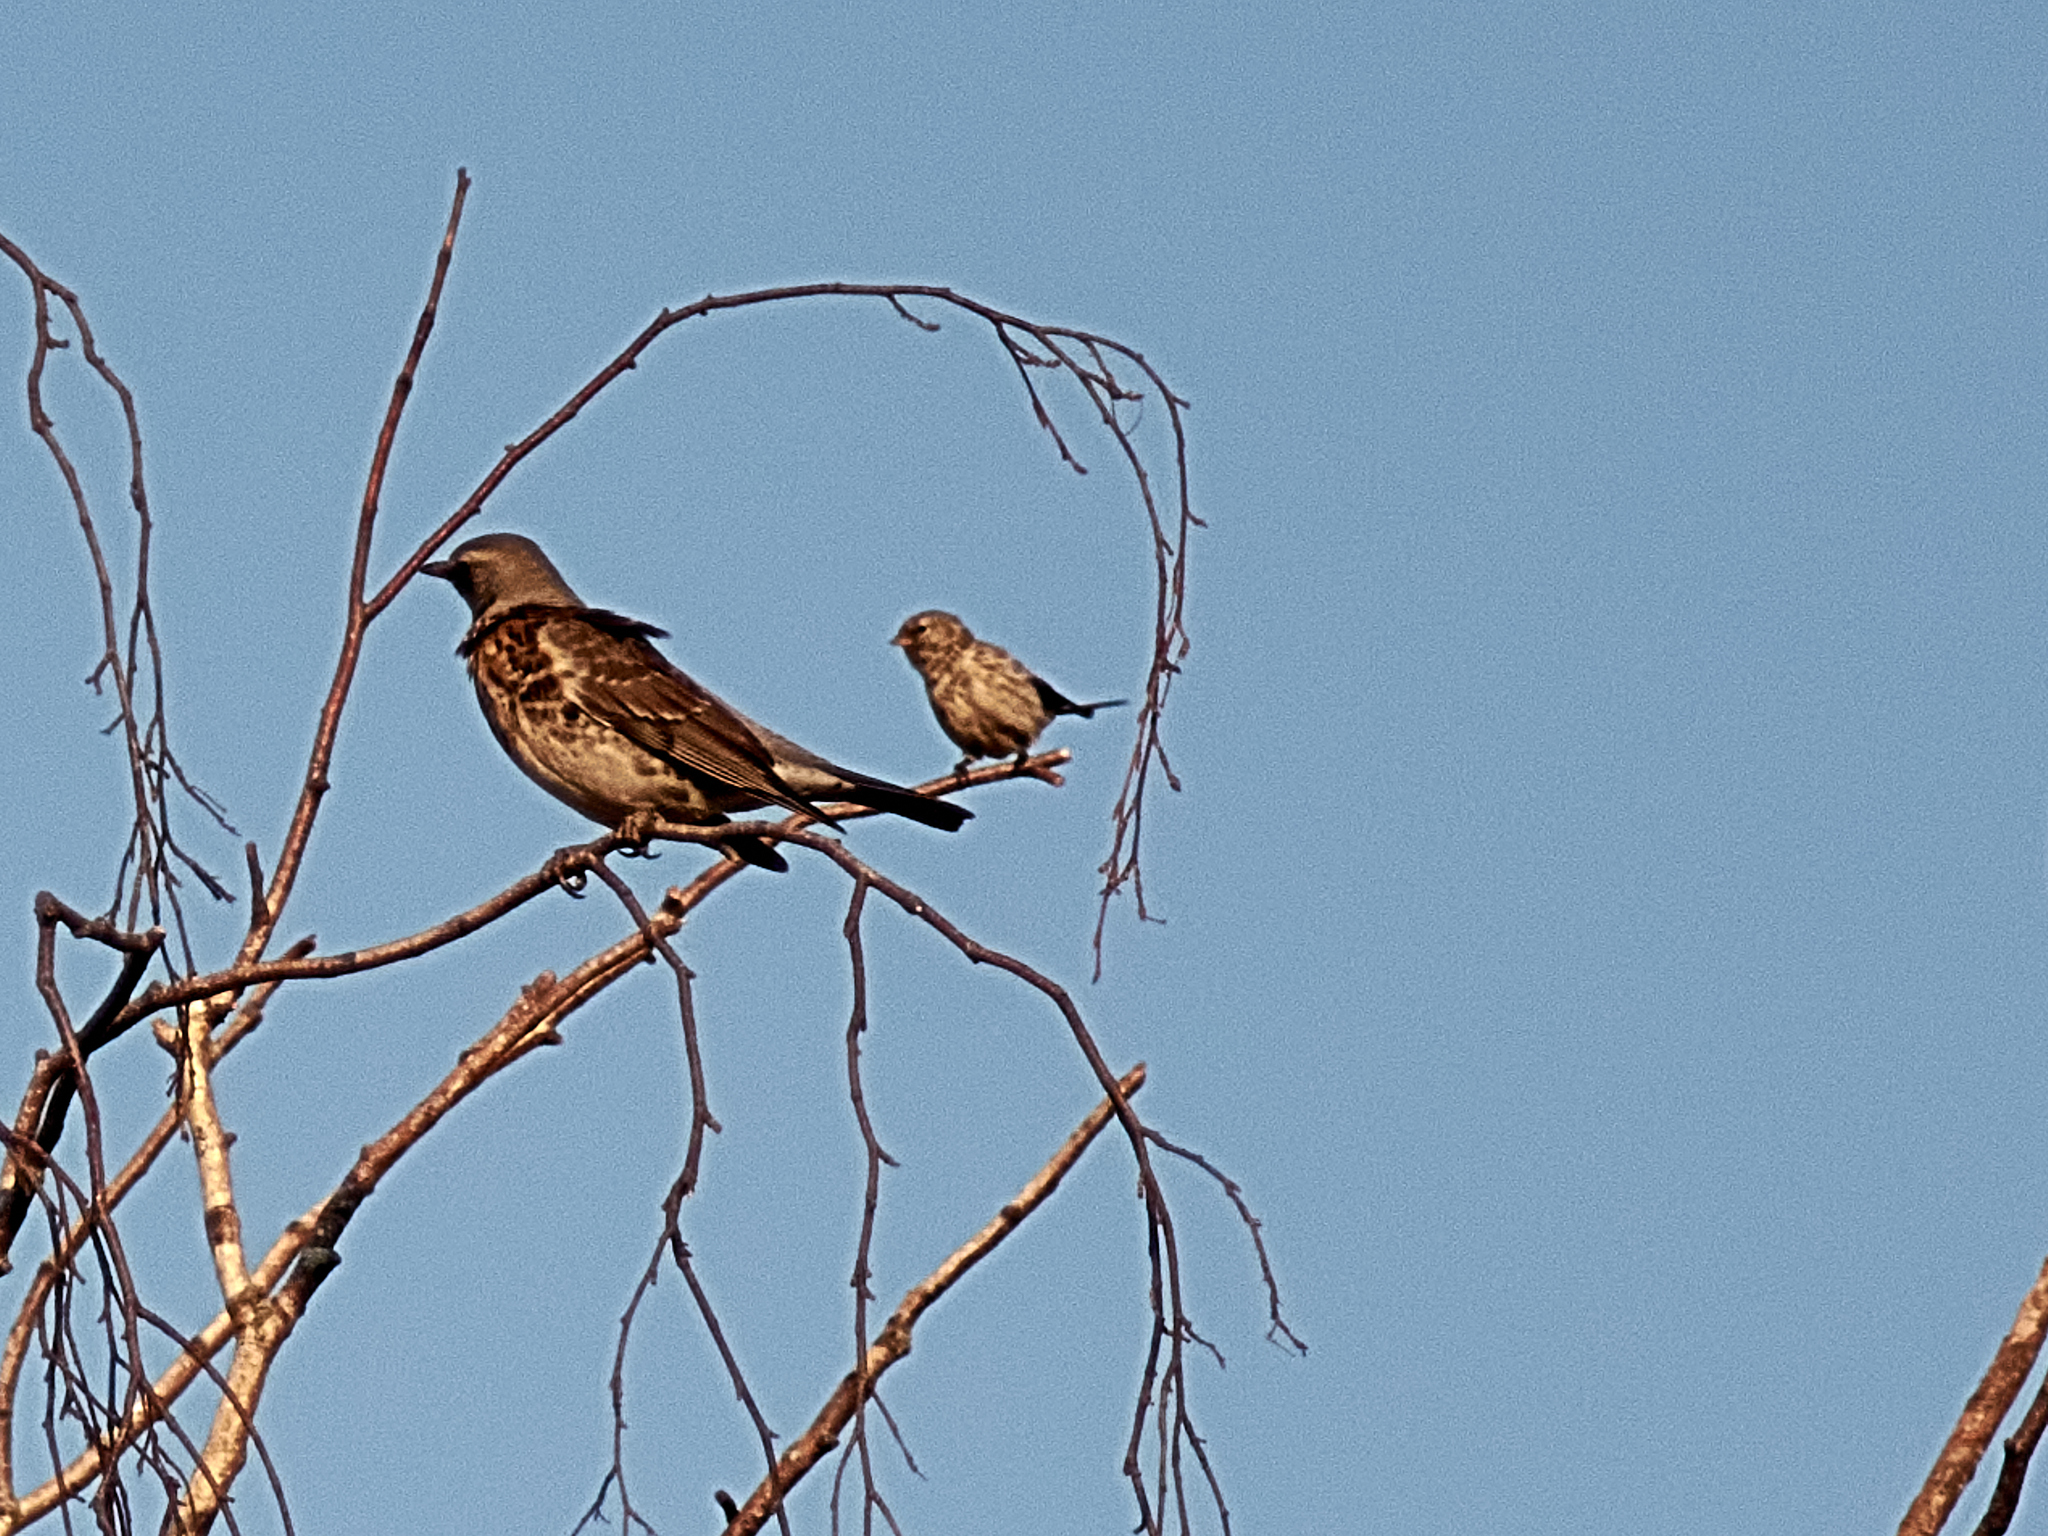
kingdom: Animalia
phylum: Chordata
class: Aves
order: Passeriformes
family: Fringillidae
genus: Acanthis
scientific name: Acanthis flammea
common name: Common redpoll
